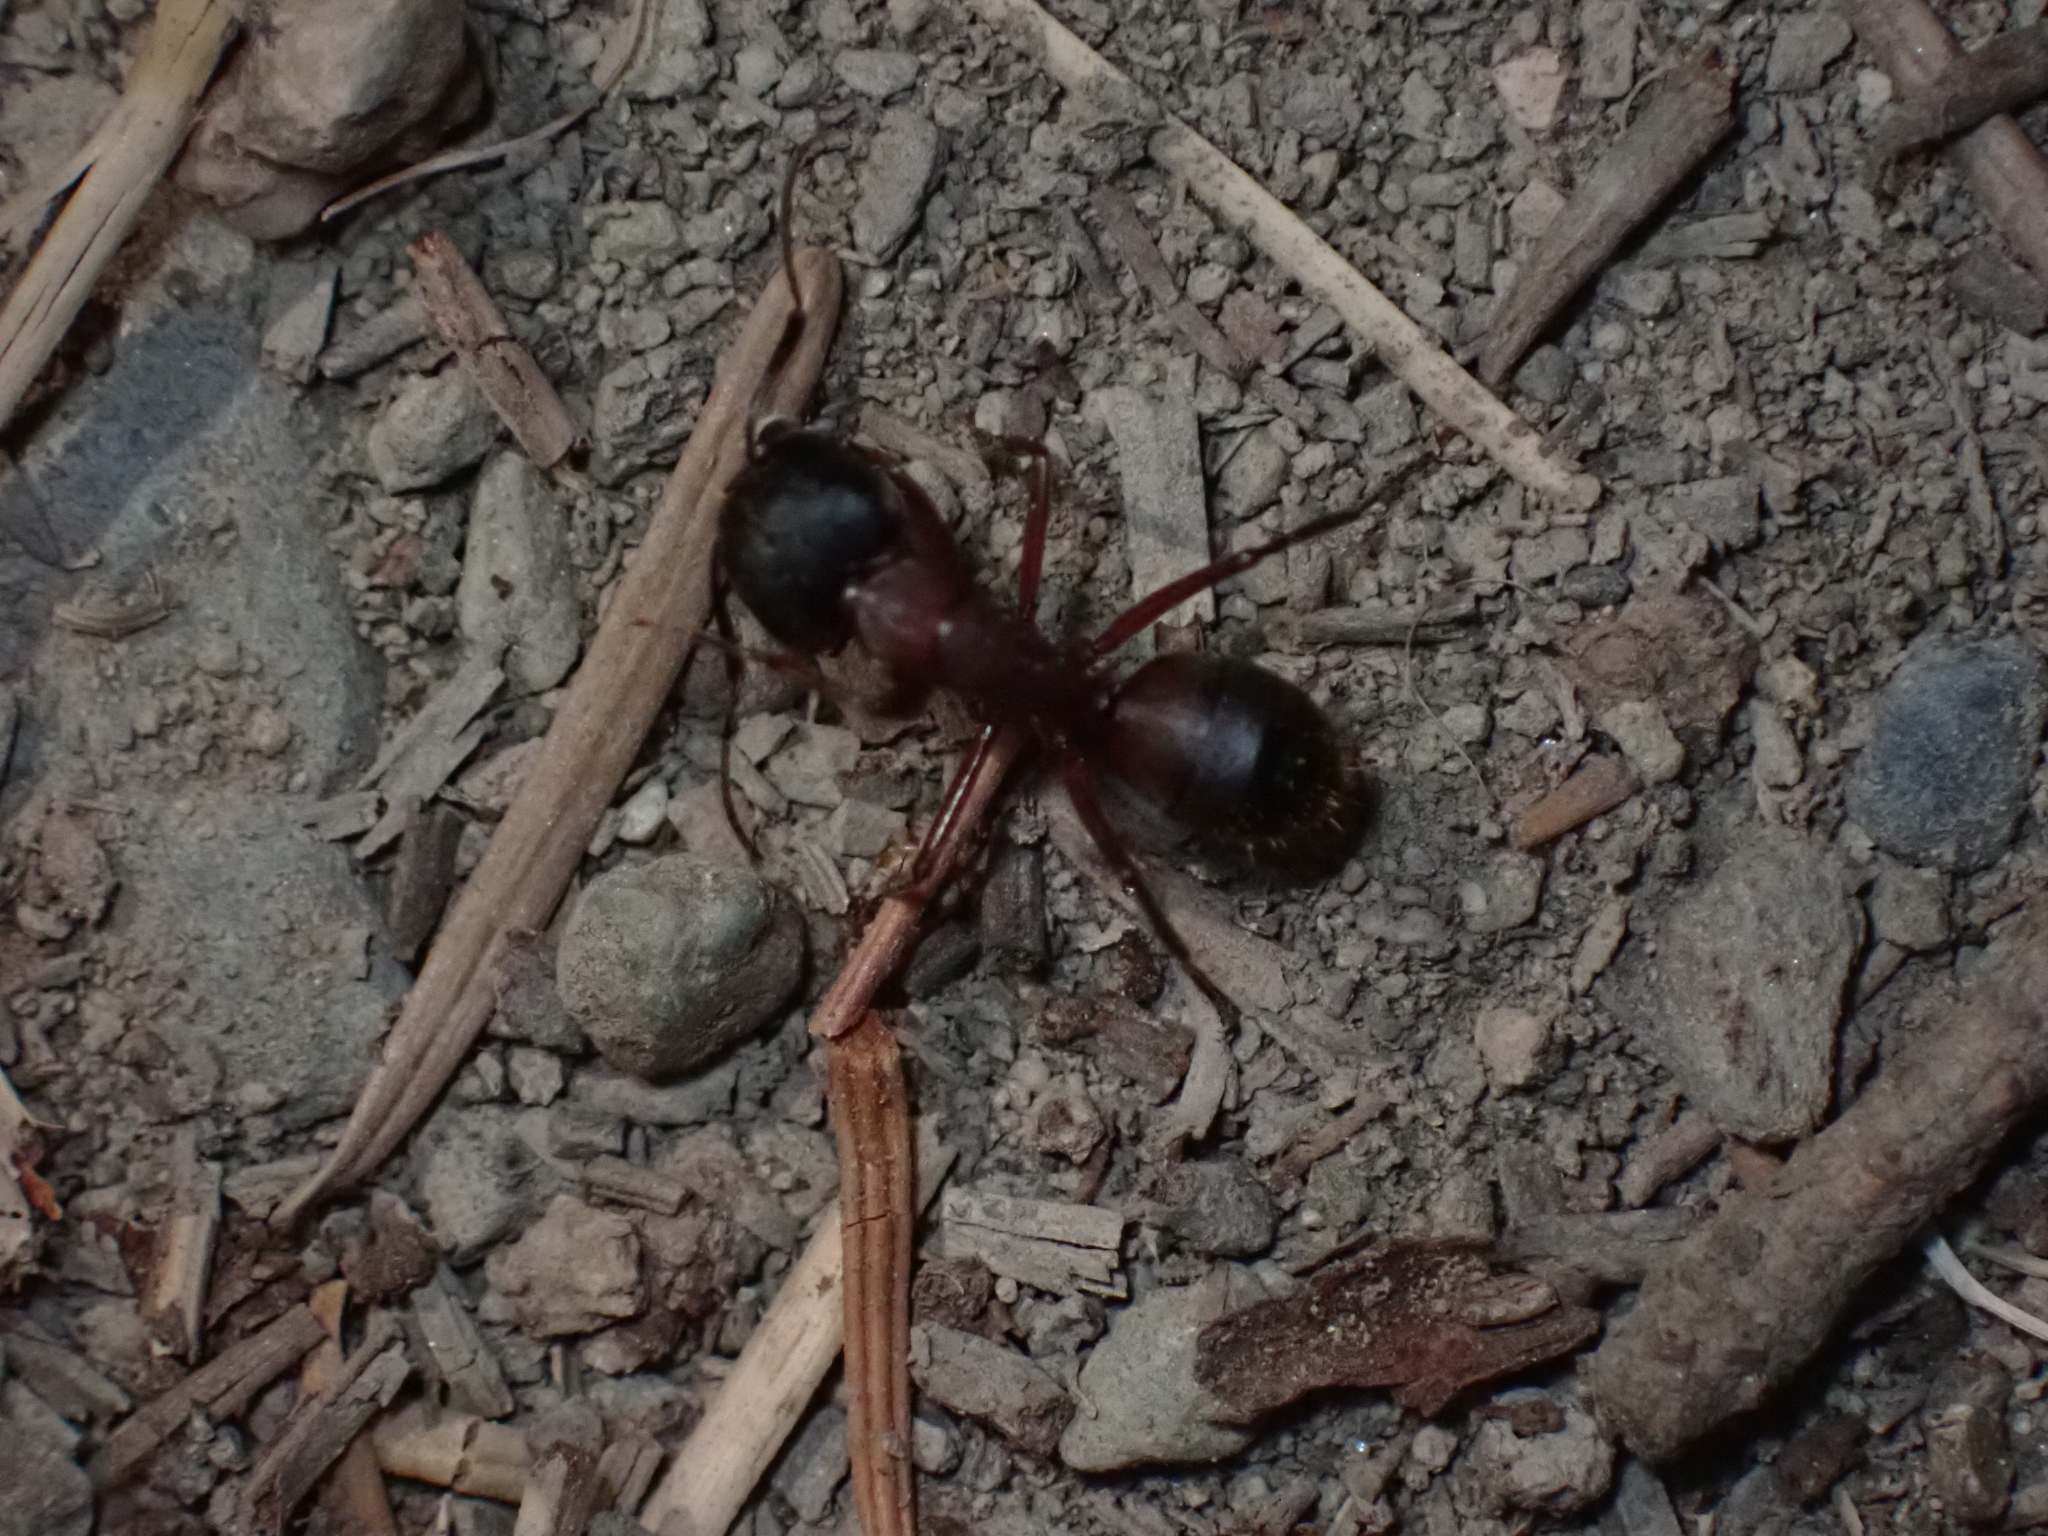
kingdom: Animalia
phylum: Arthropoda
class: Insecta
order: Hymenoptera
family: Formicidae
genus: Camponotus
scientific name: Camponotus vicinus
